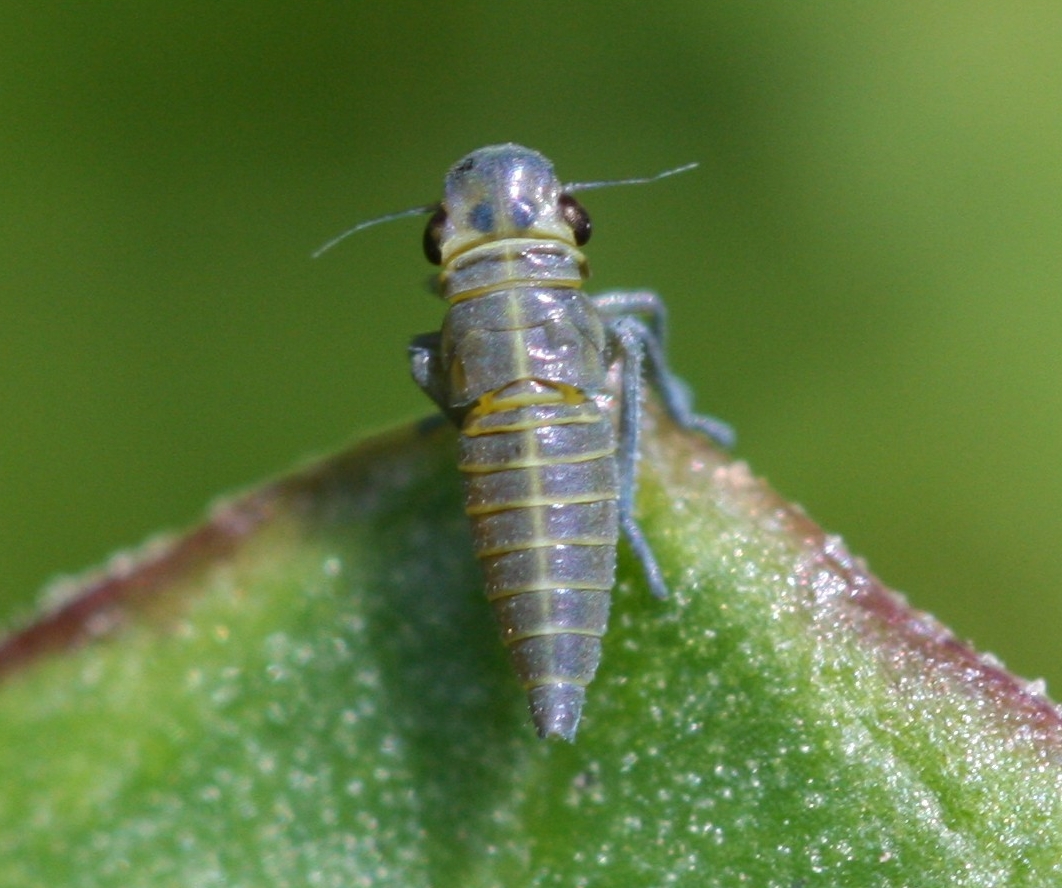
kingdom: Animalia
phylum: Arthropoda
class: Insecta
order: Hemiptera
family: Cicadellidae
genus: Cicadella
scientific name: Cicadella viridis
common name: Leafhopper
